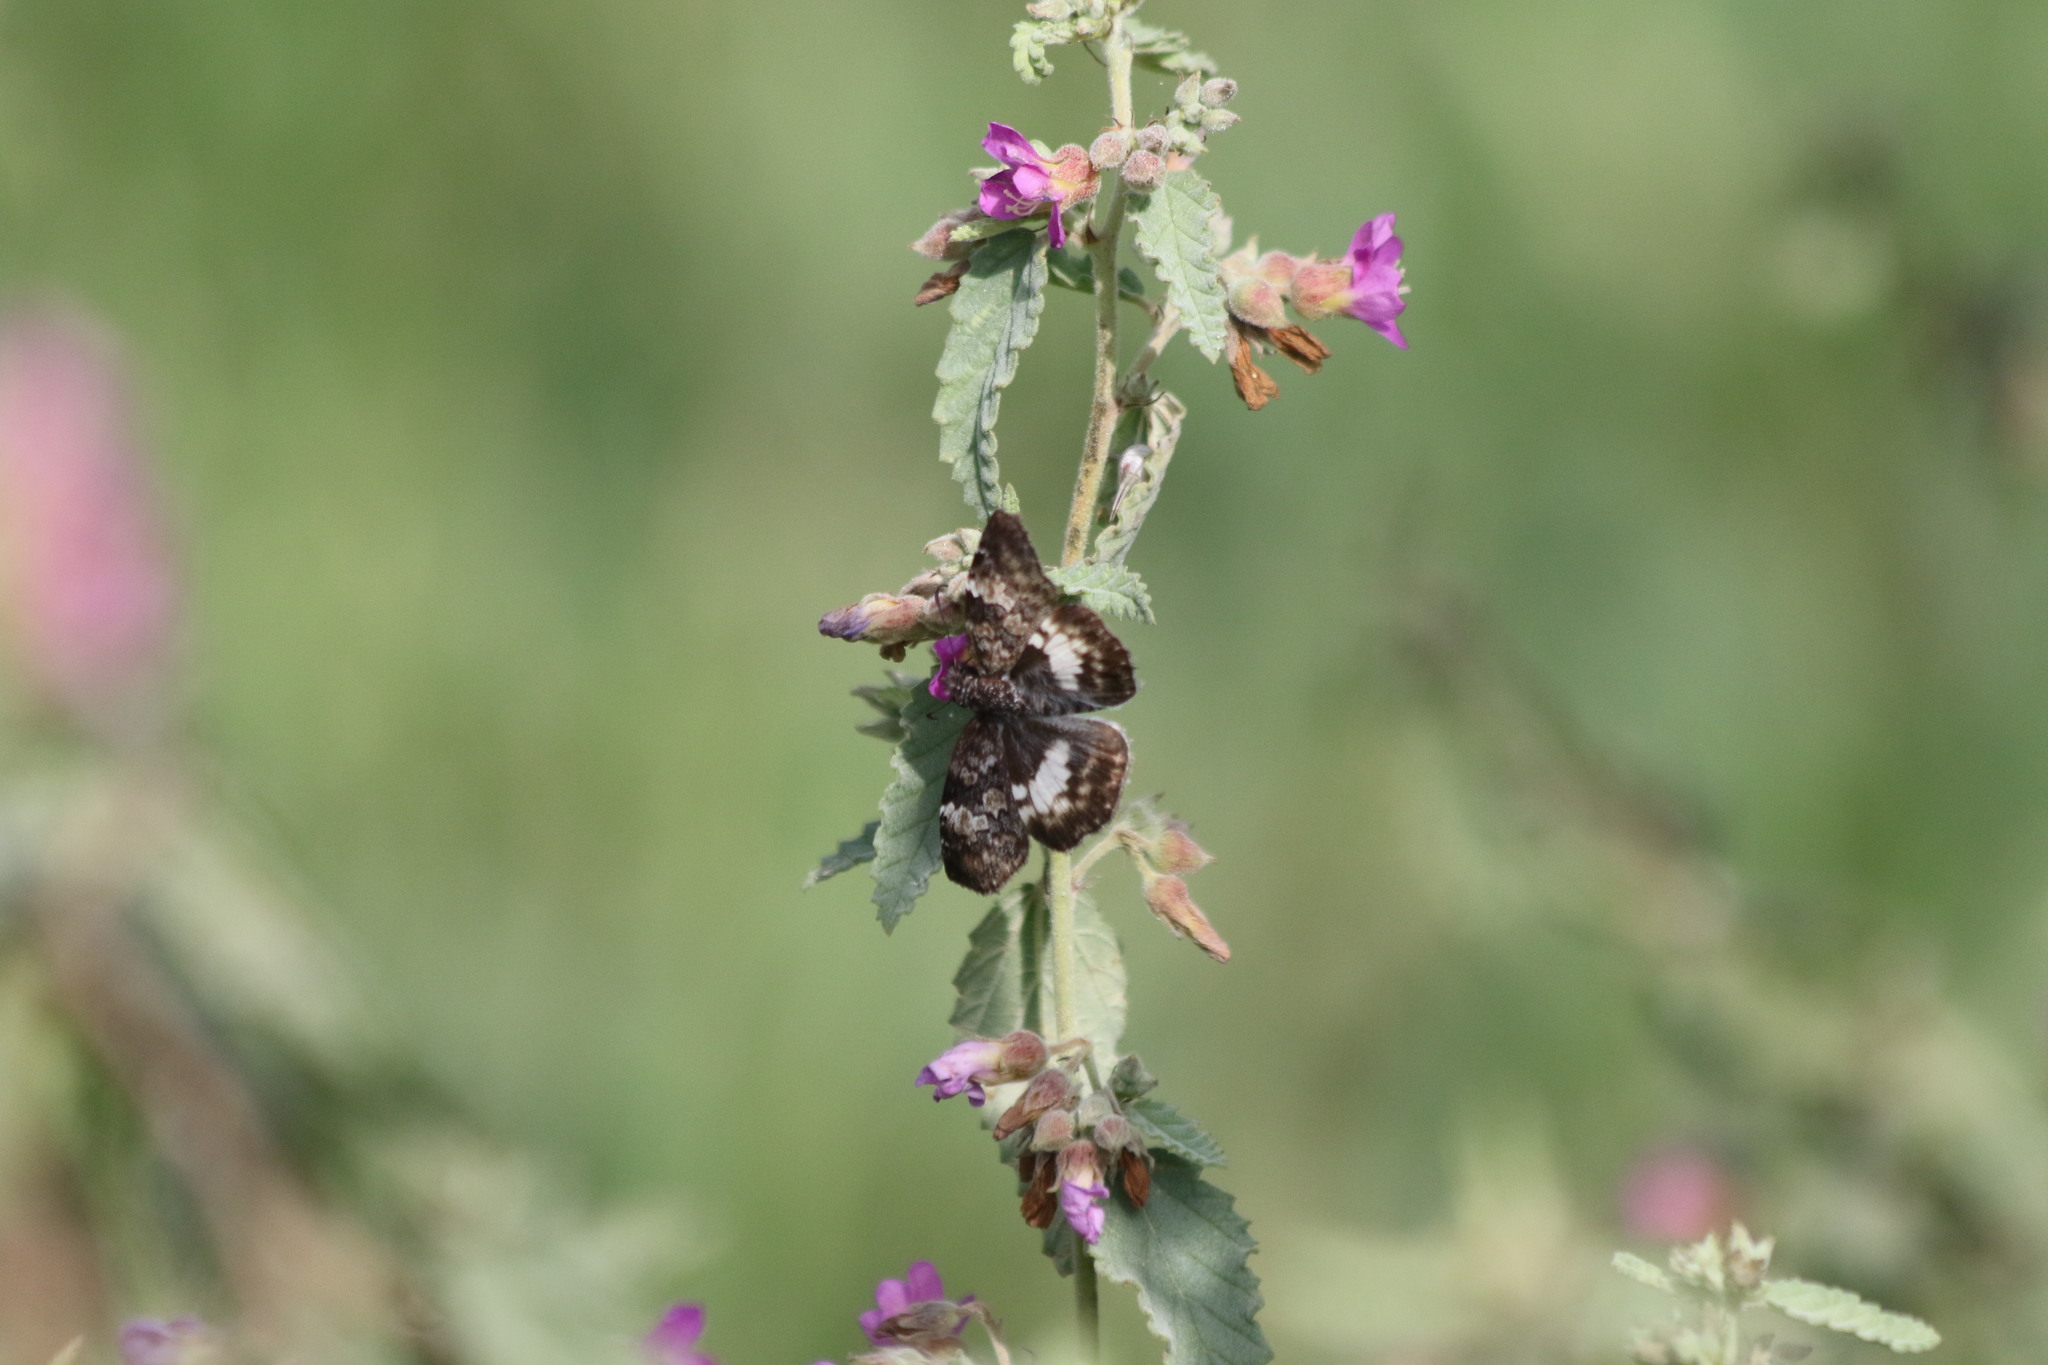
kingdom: Animalia
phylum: Arthropoda
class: Insecta
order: Lepidoptera
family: Hesperiidae
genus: Chiothion
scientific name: Chiothion georgina
